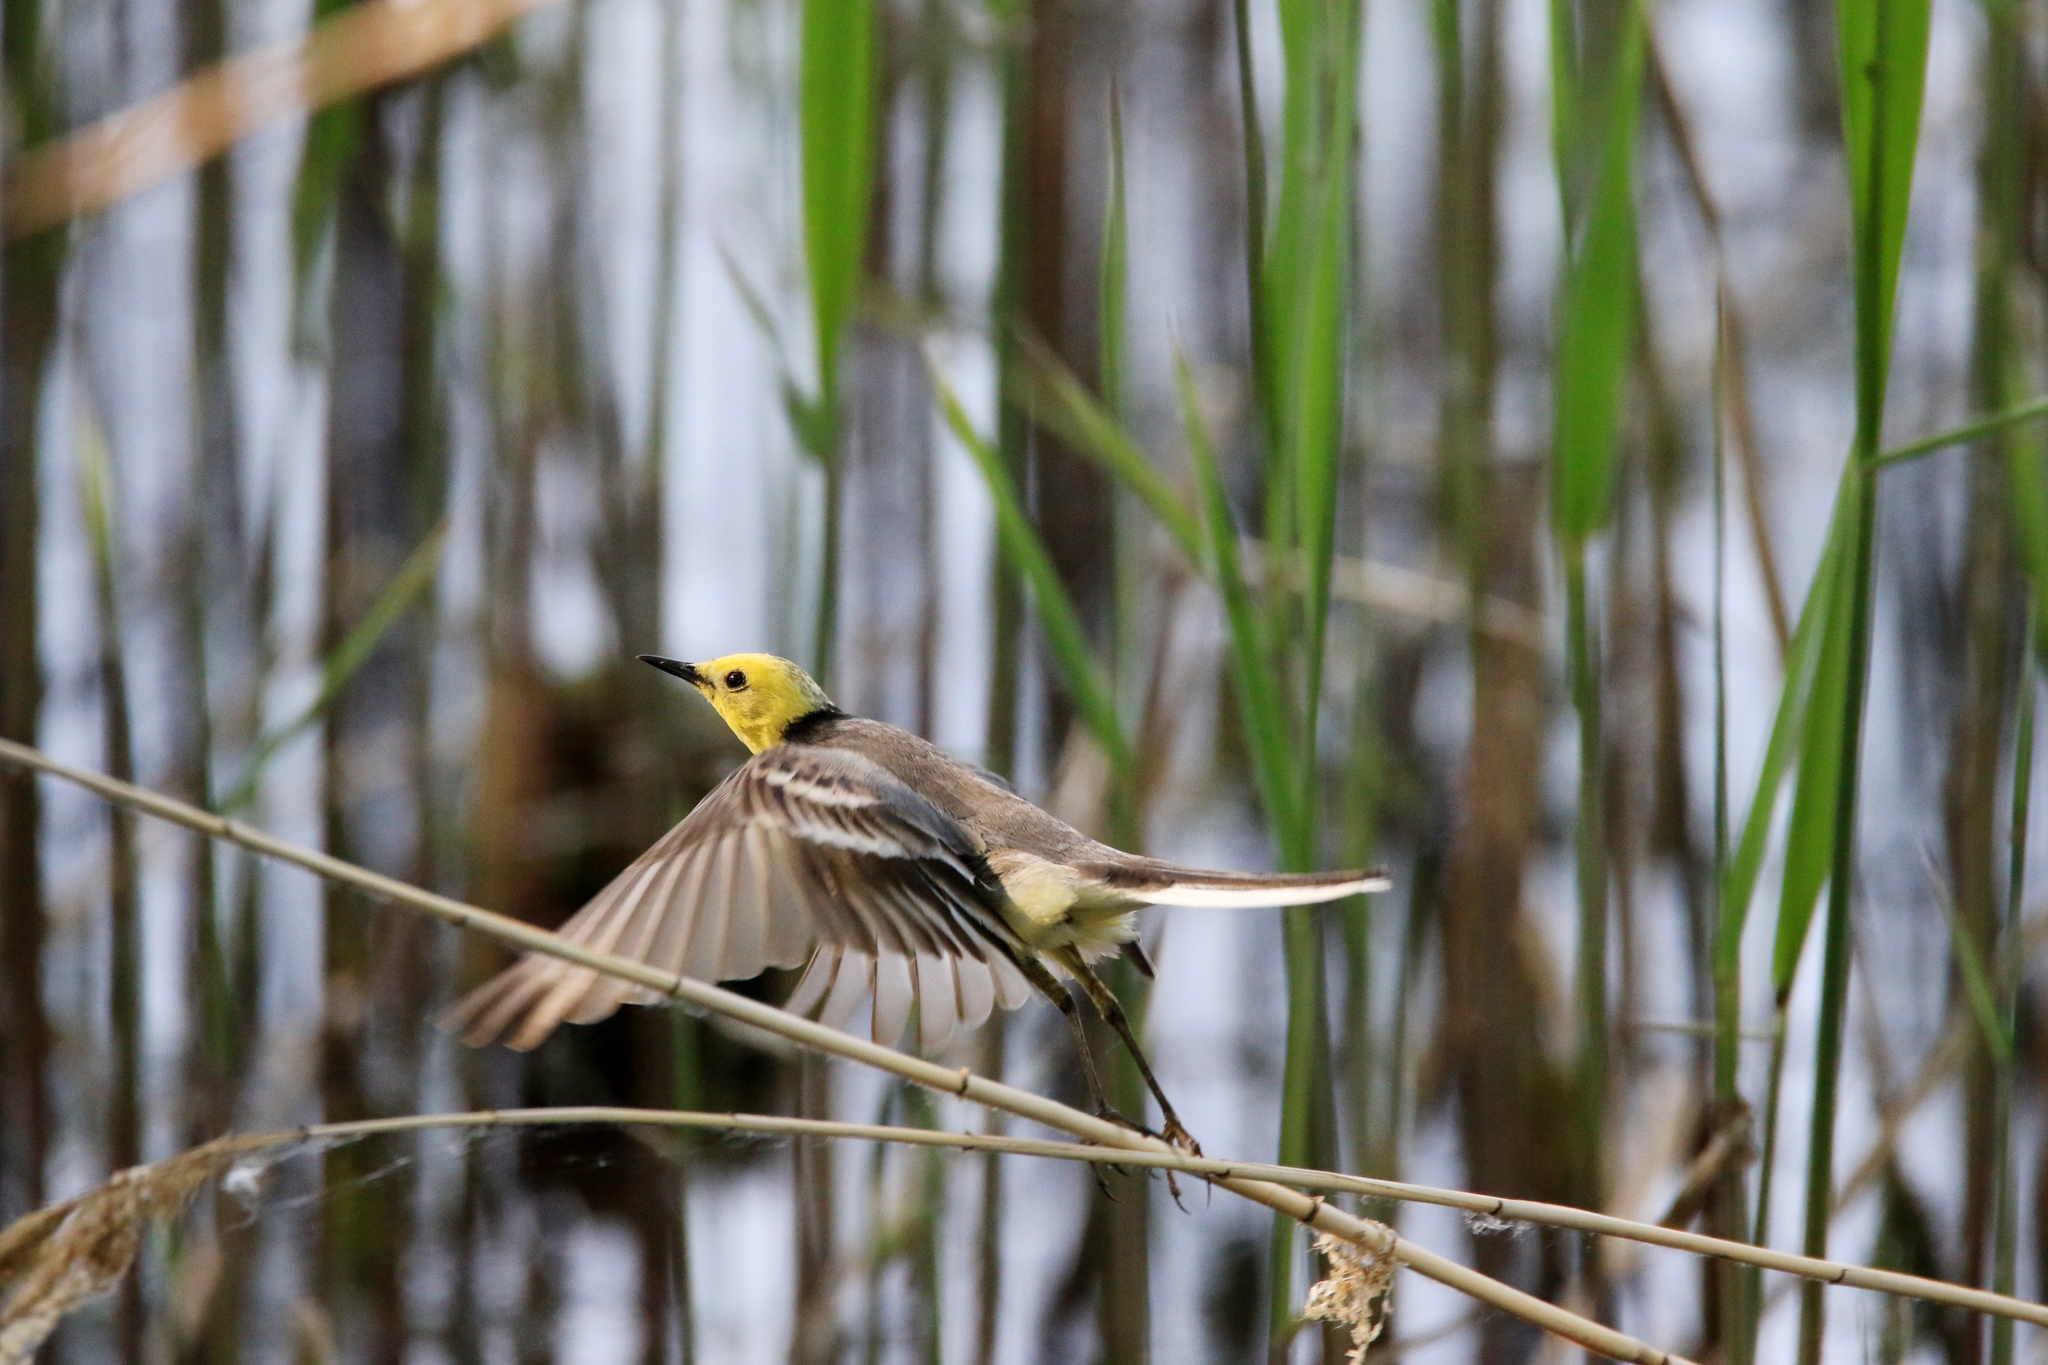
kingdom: Animalia
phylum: Chordata
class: Aves
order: Passeriformes
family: Motacillidae
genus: Motacilla
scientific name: Motacilla citreola
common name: Citrine wagtail
